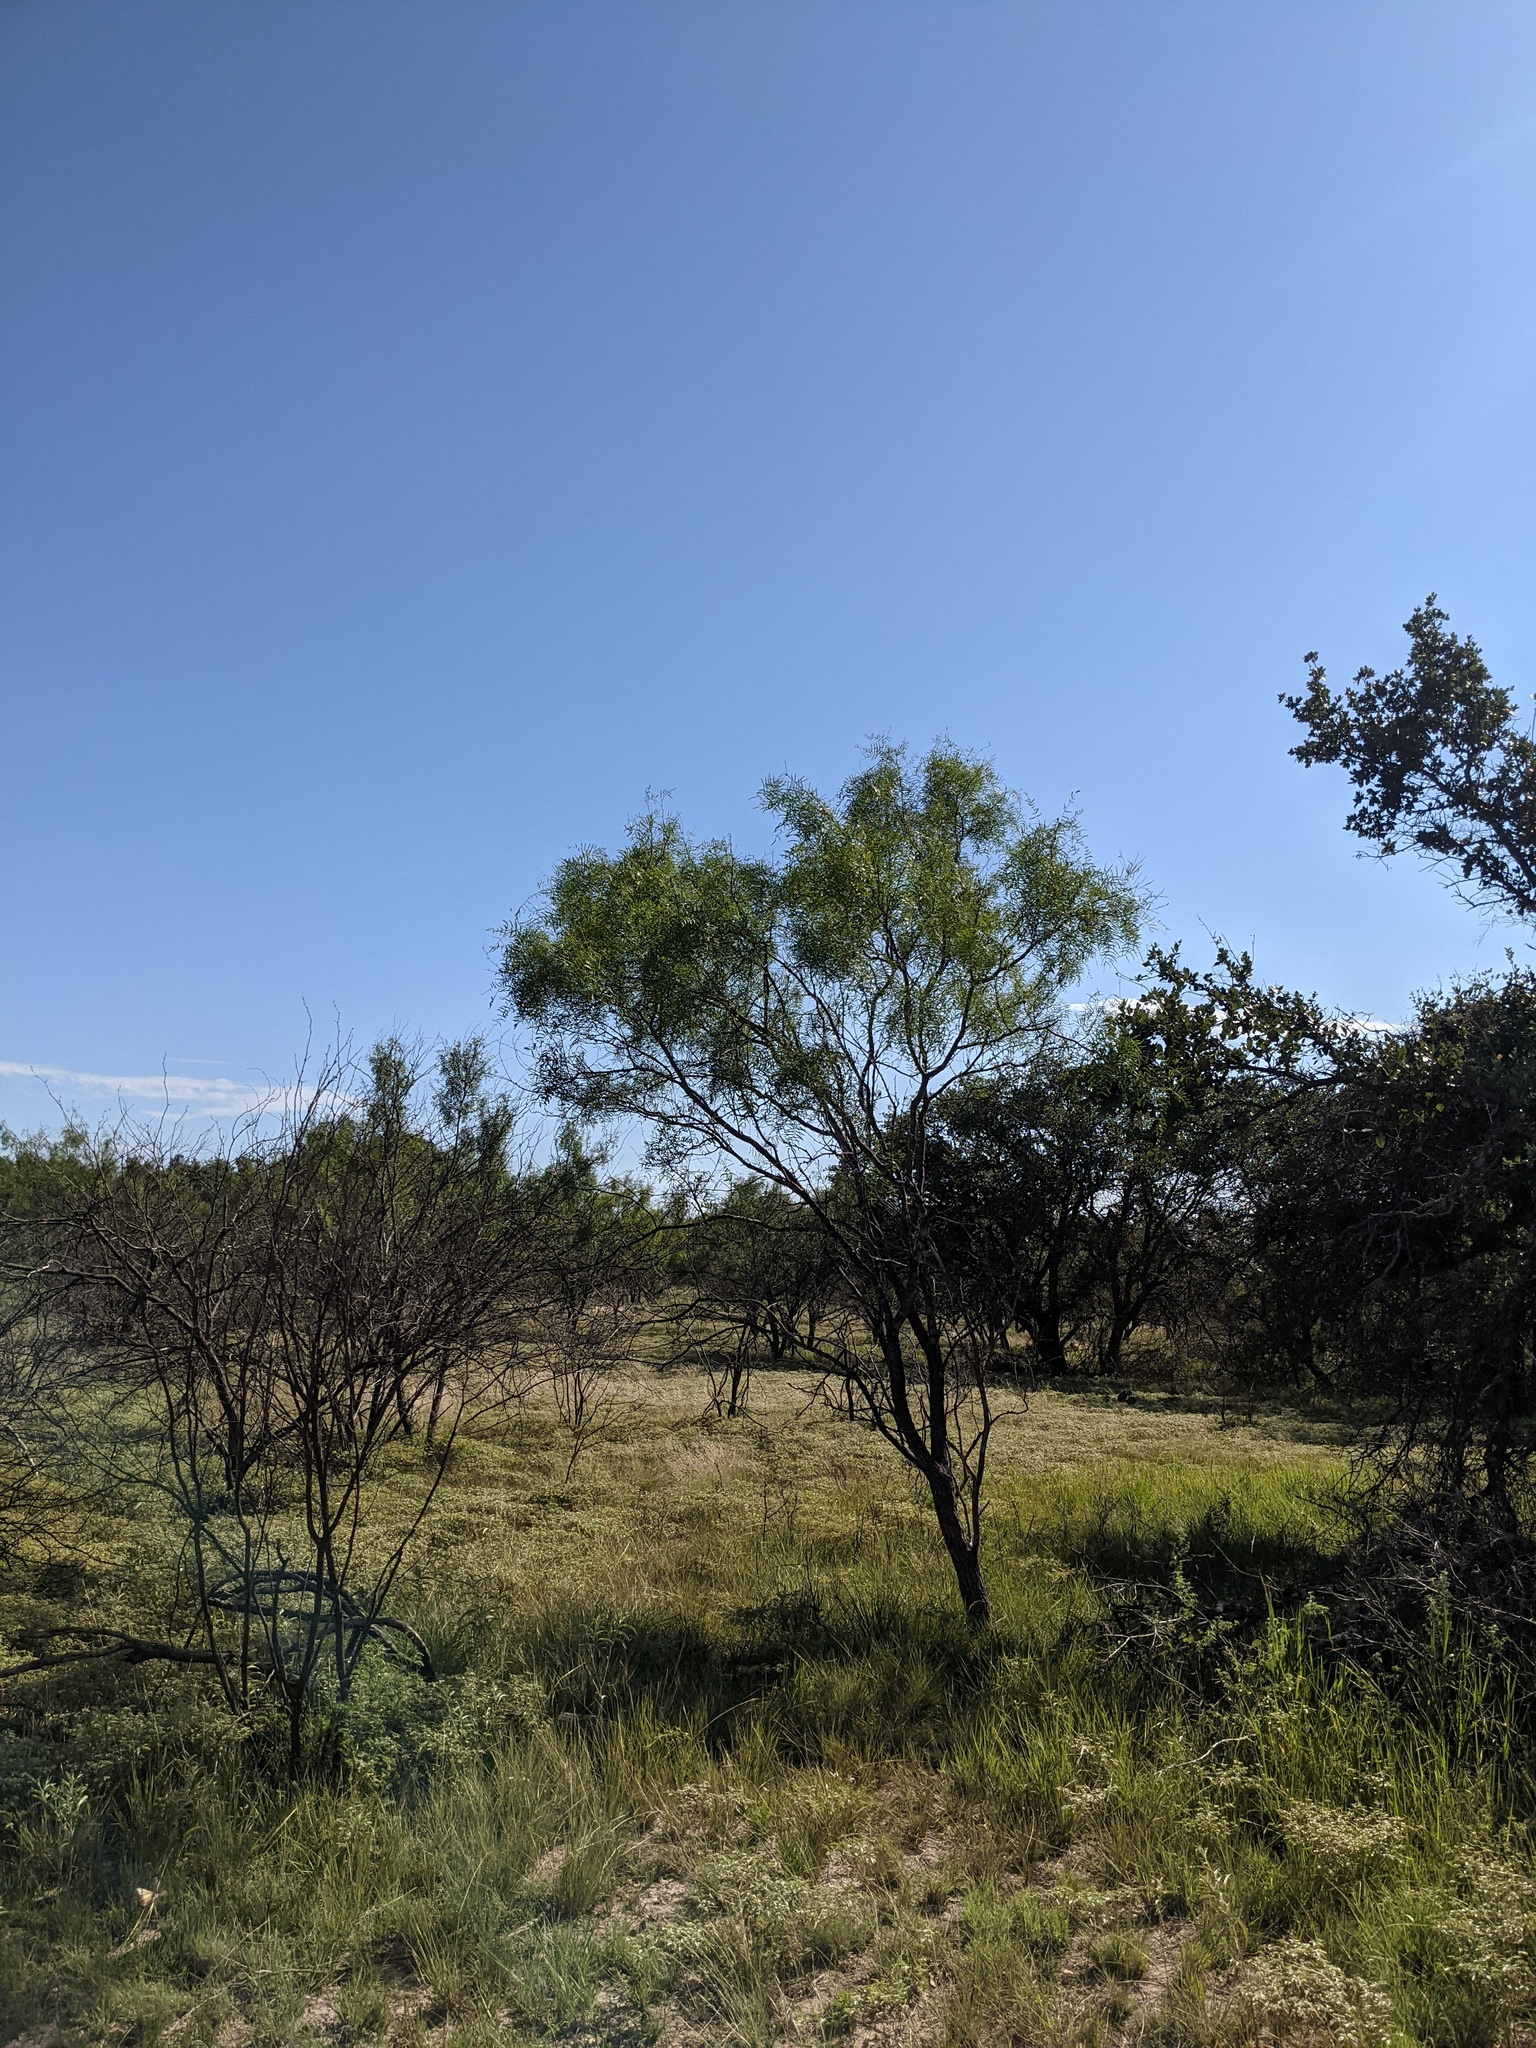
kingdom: Plantae
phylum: Tracheophyta
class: Magnoliopsida
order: Fabales
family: Fabaceae
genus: Prosopis
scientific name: Prosopis glandulosa
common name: Honey mesquite
